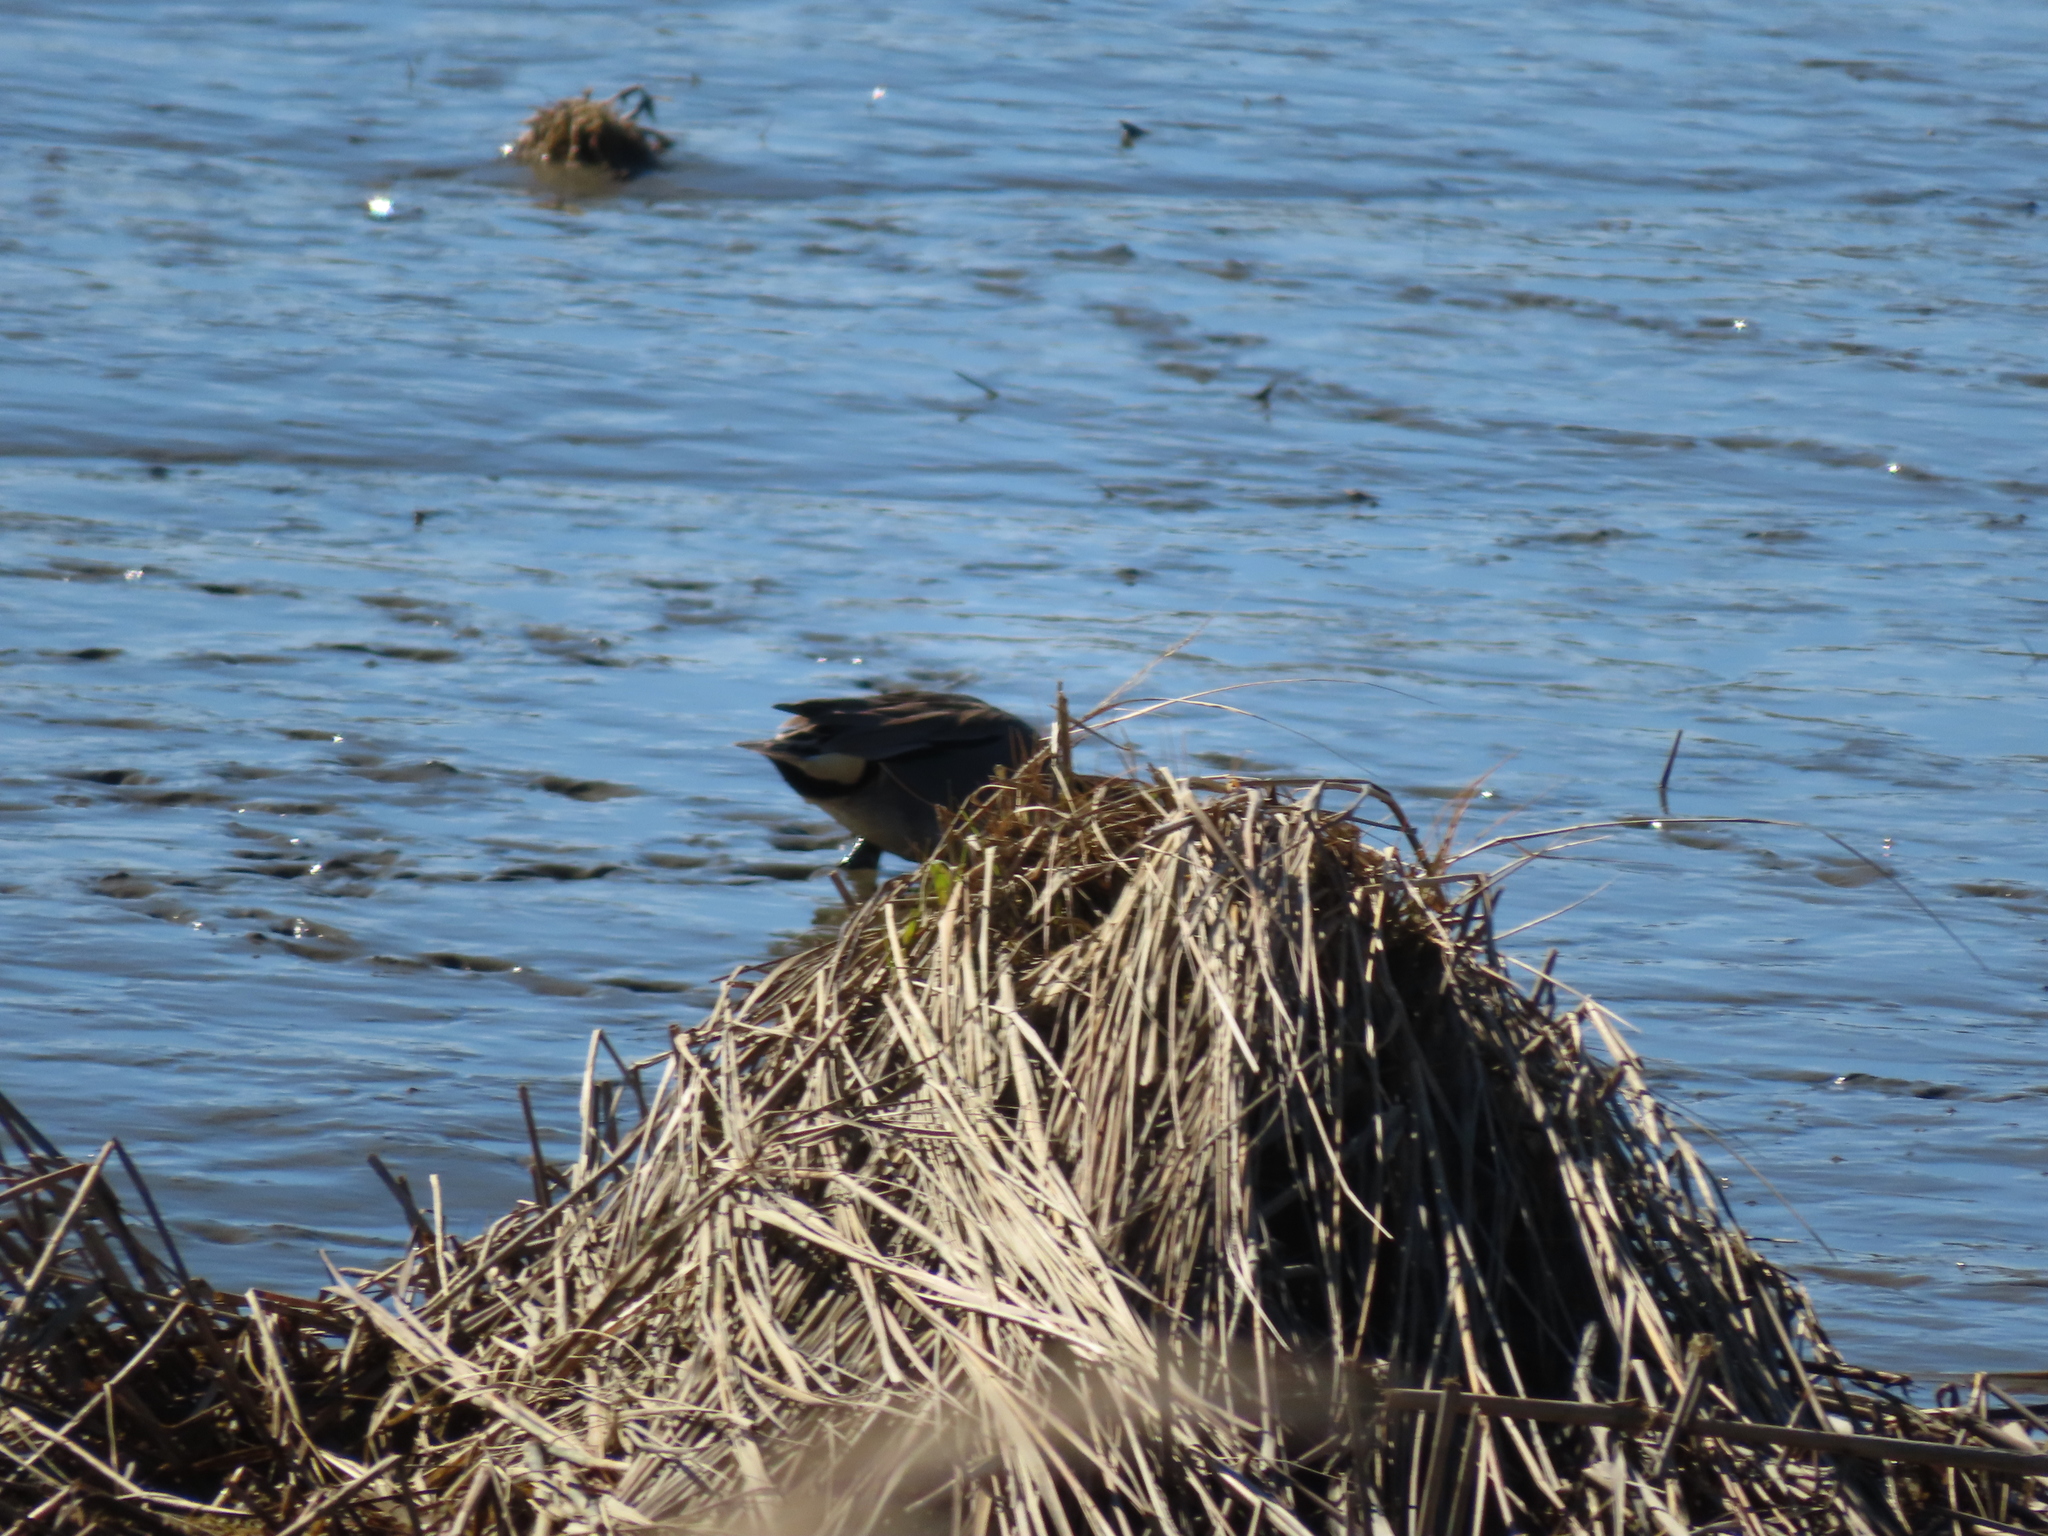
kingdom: Animalia
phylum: Chordata
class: Aves
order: Anseriformes
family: Anatidae
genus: Anas
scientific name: Anas crecca
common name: Eurasian teal
